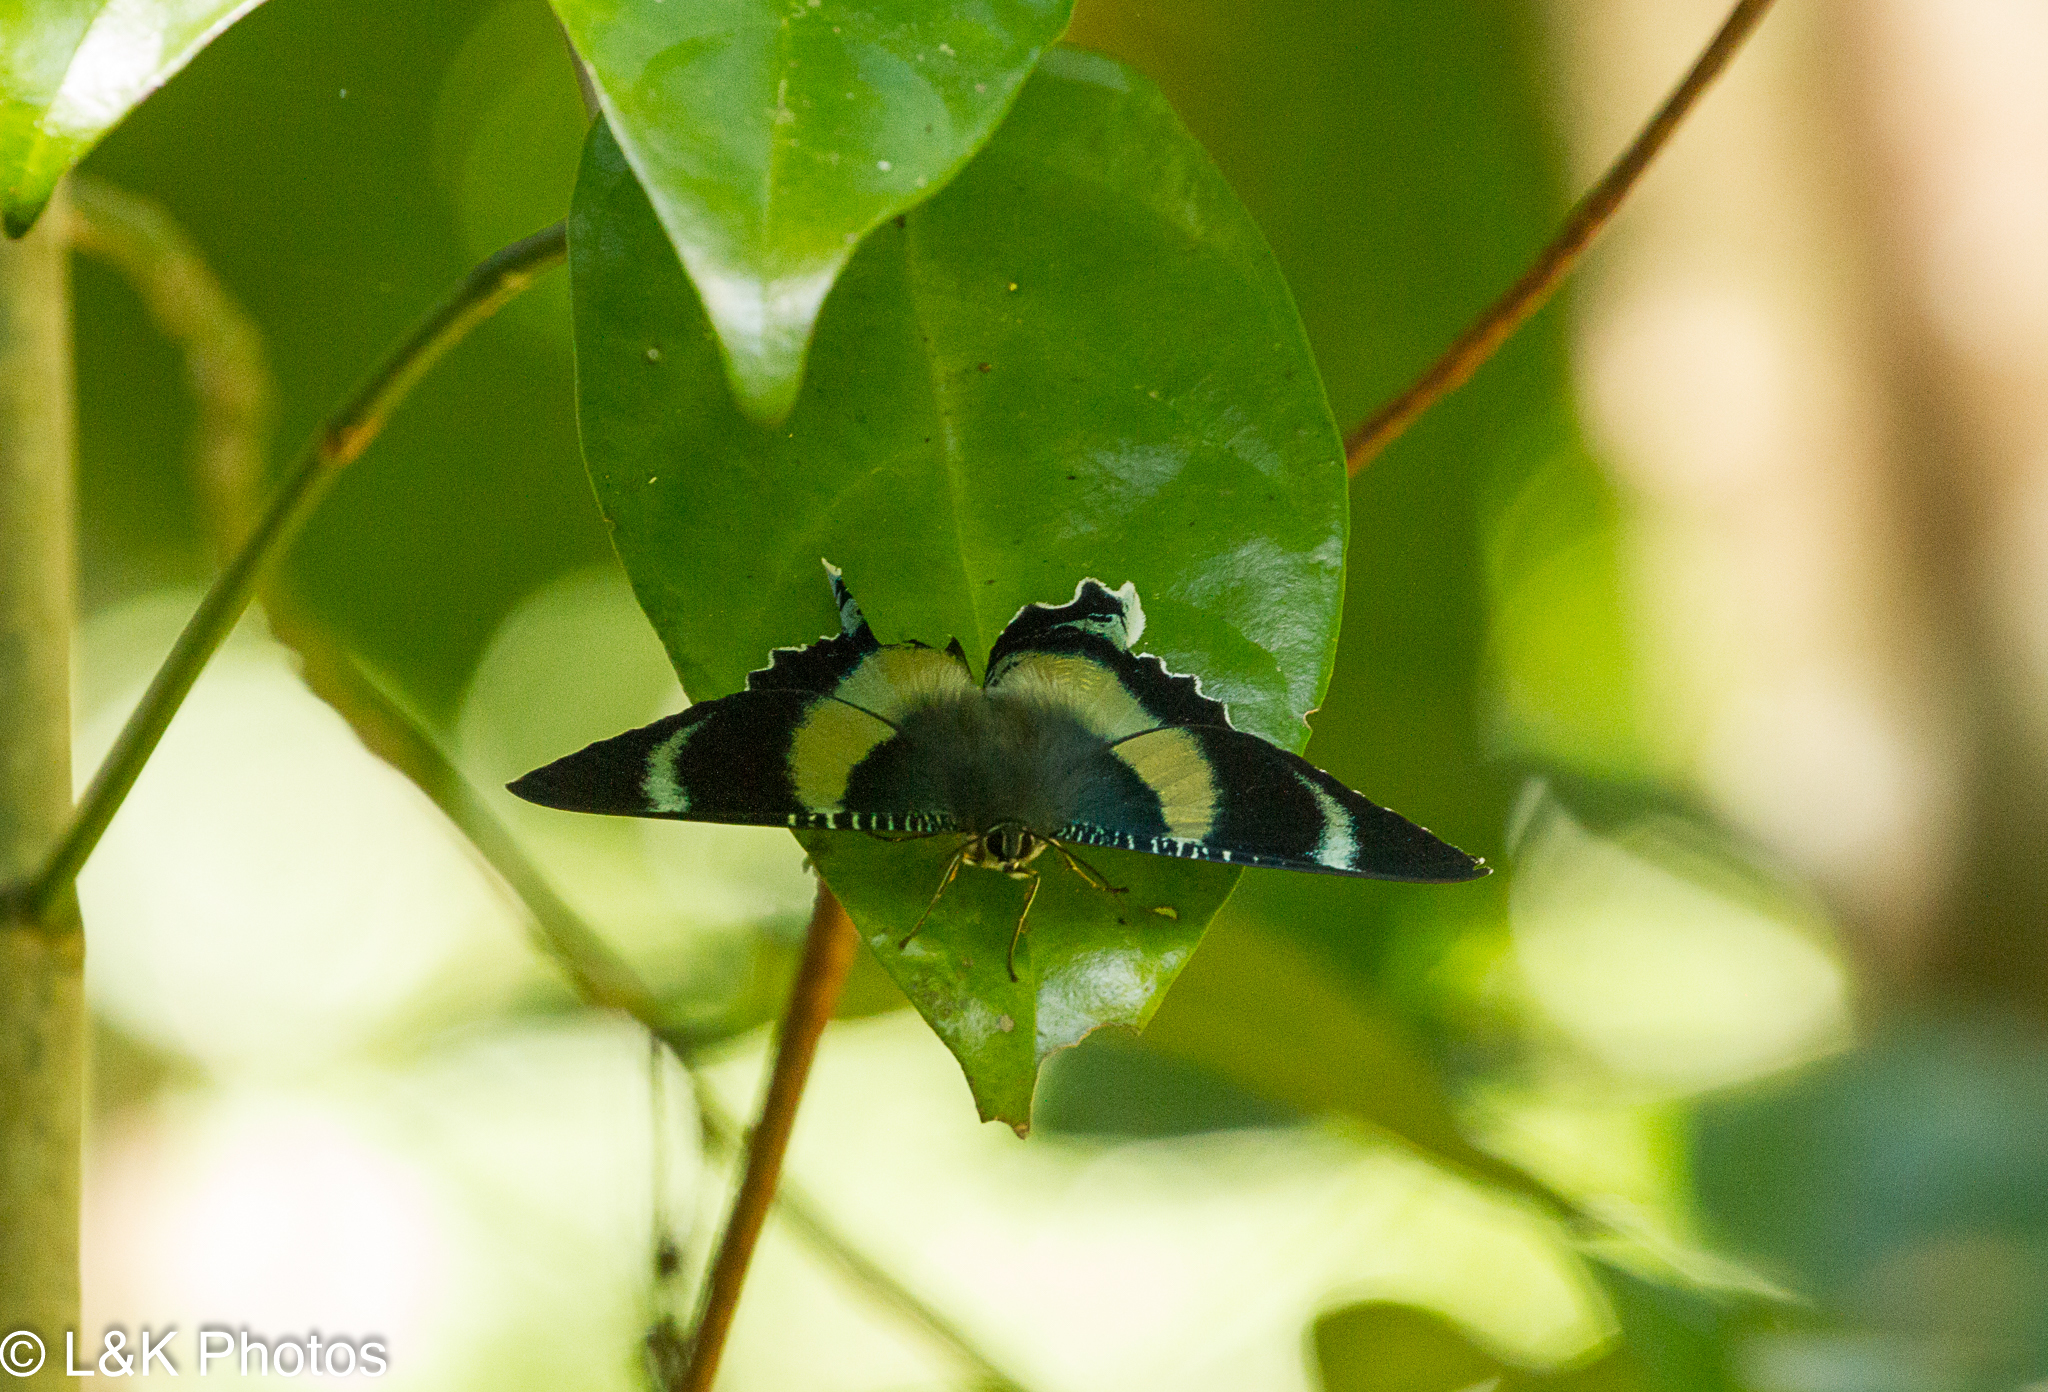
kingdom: Animalia
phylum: Arthropoda
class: Insecta
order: Lepidoptera
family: Uraniidae
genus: Alcides
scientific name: Alcides metaurus
